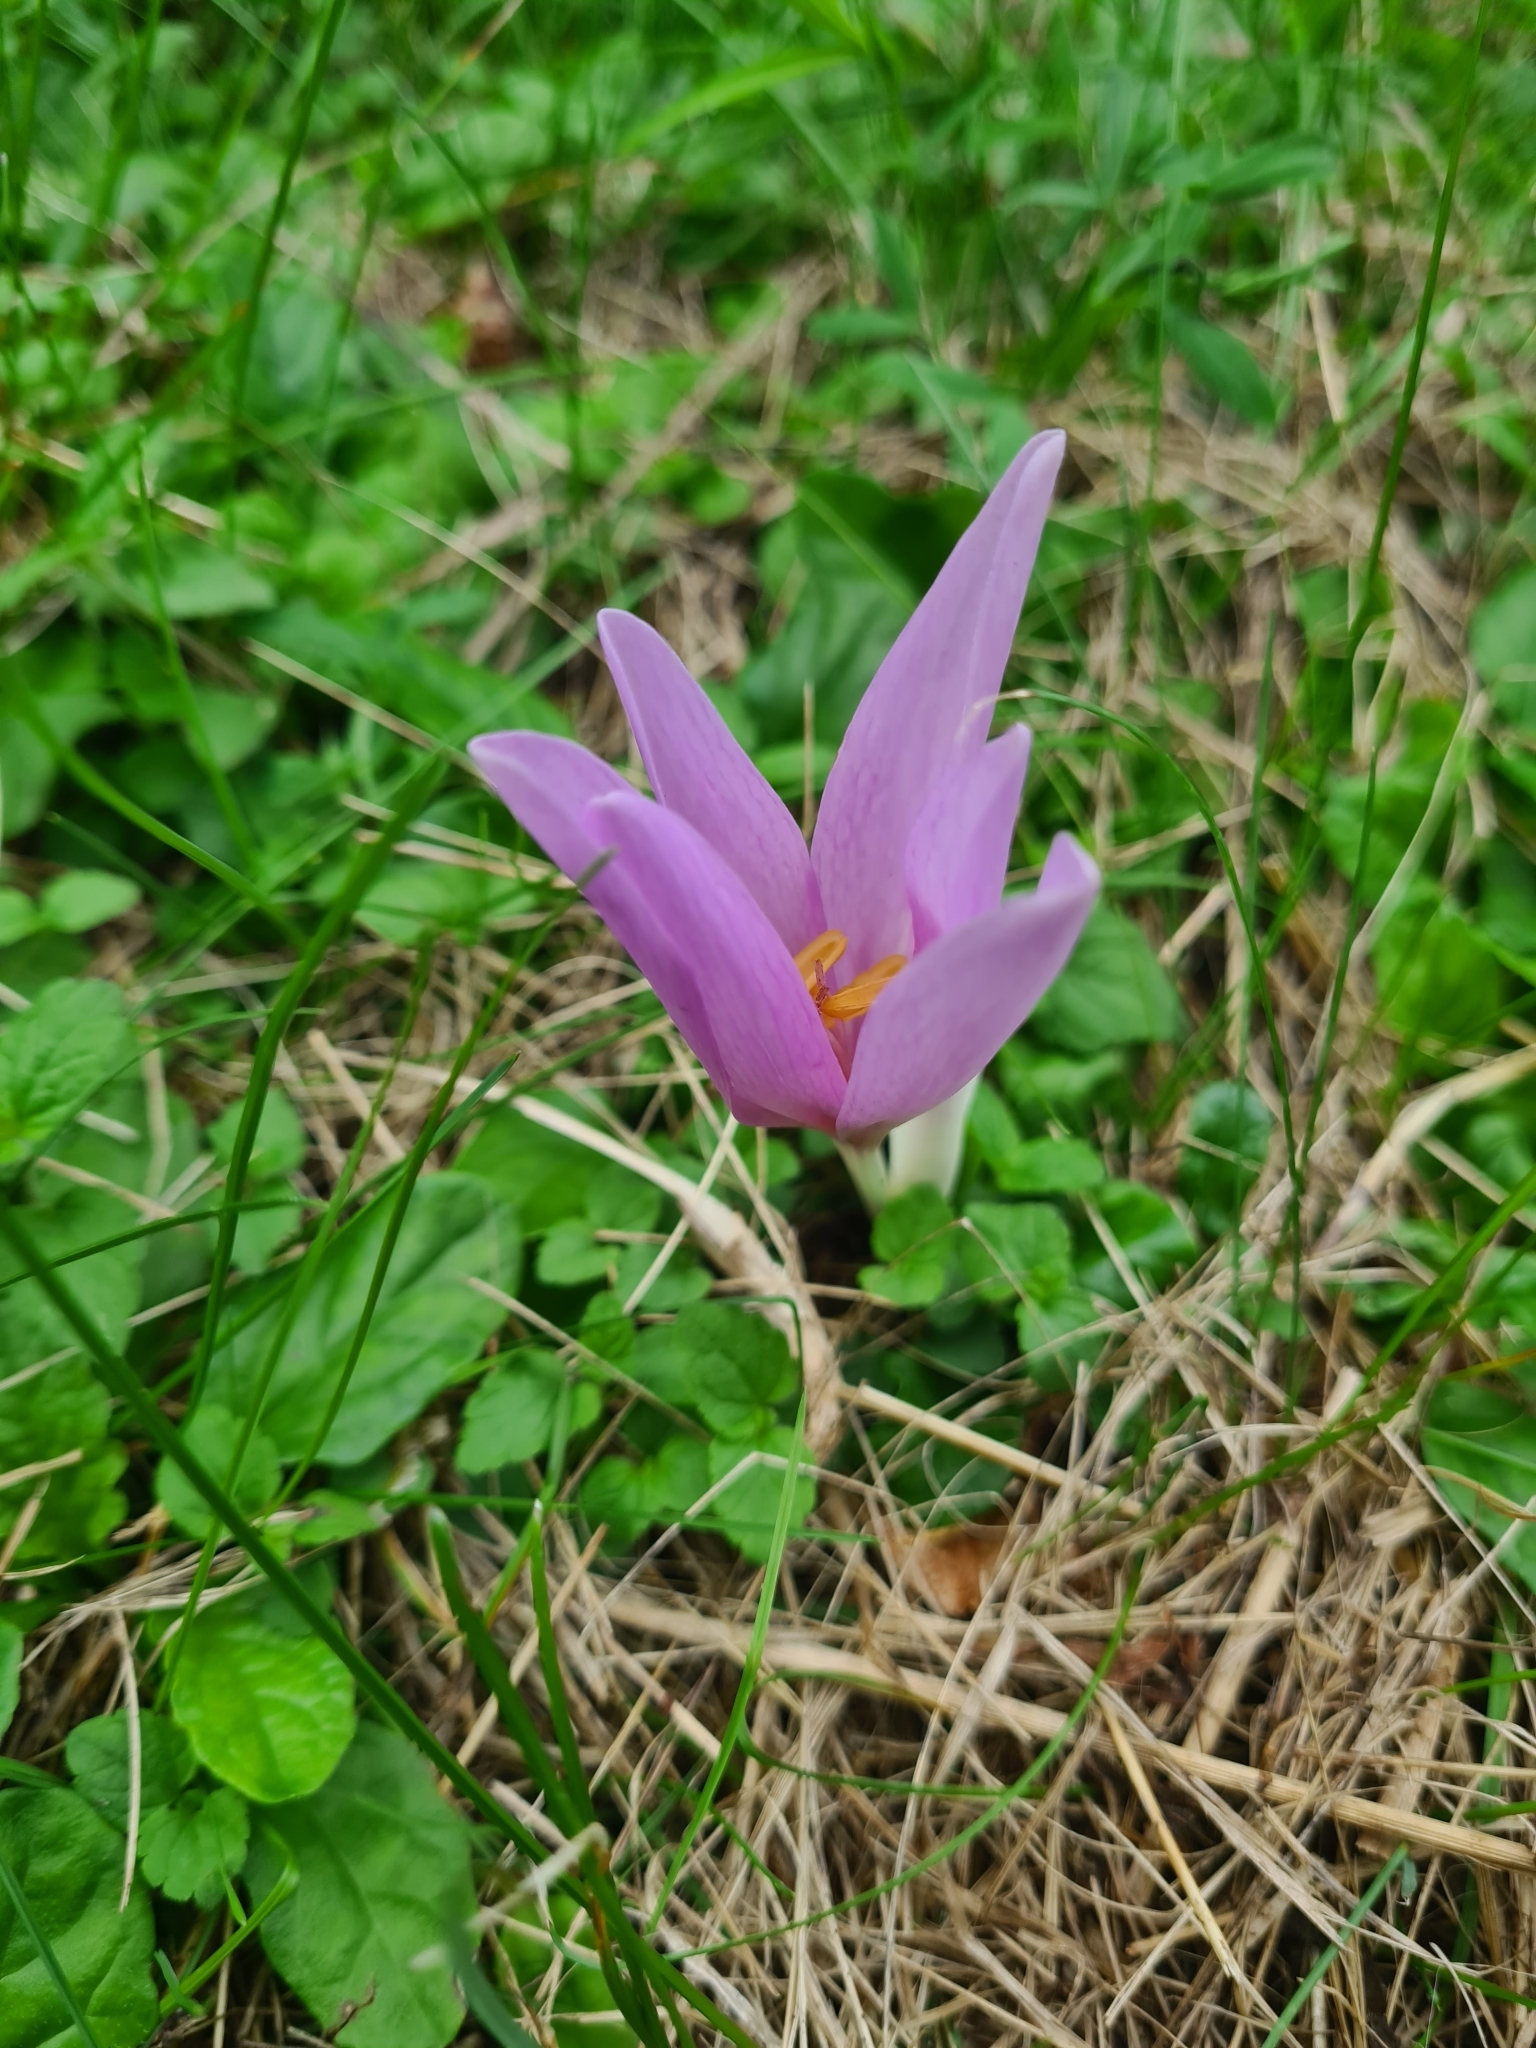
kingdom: Plantae
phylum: Tracheophyta
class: Liliopsida
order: Liliales
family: Colchicaceae
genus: Colchicum
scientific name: Colchicum autumnale
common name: Autumn crocus
